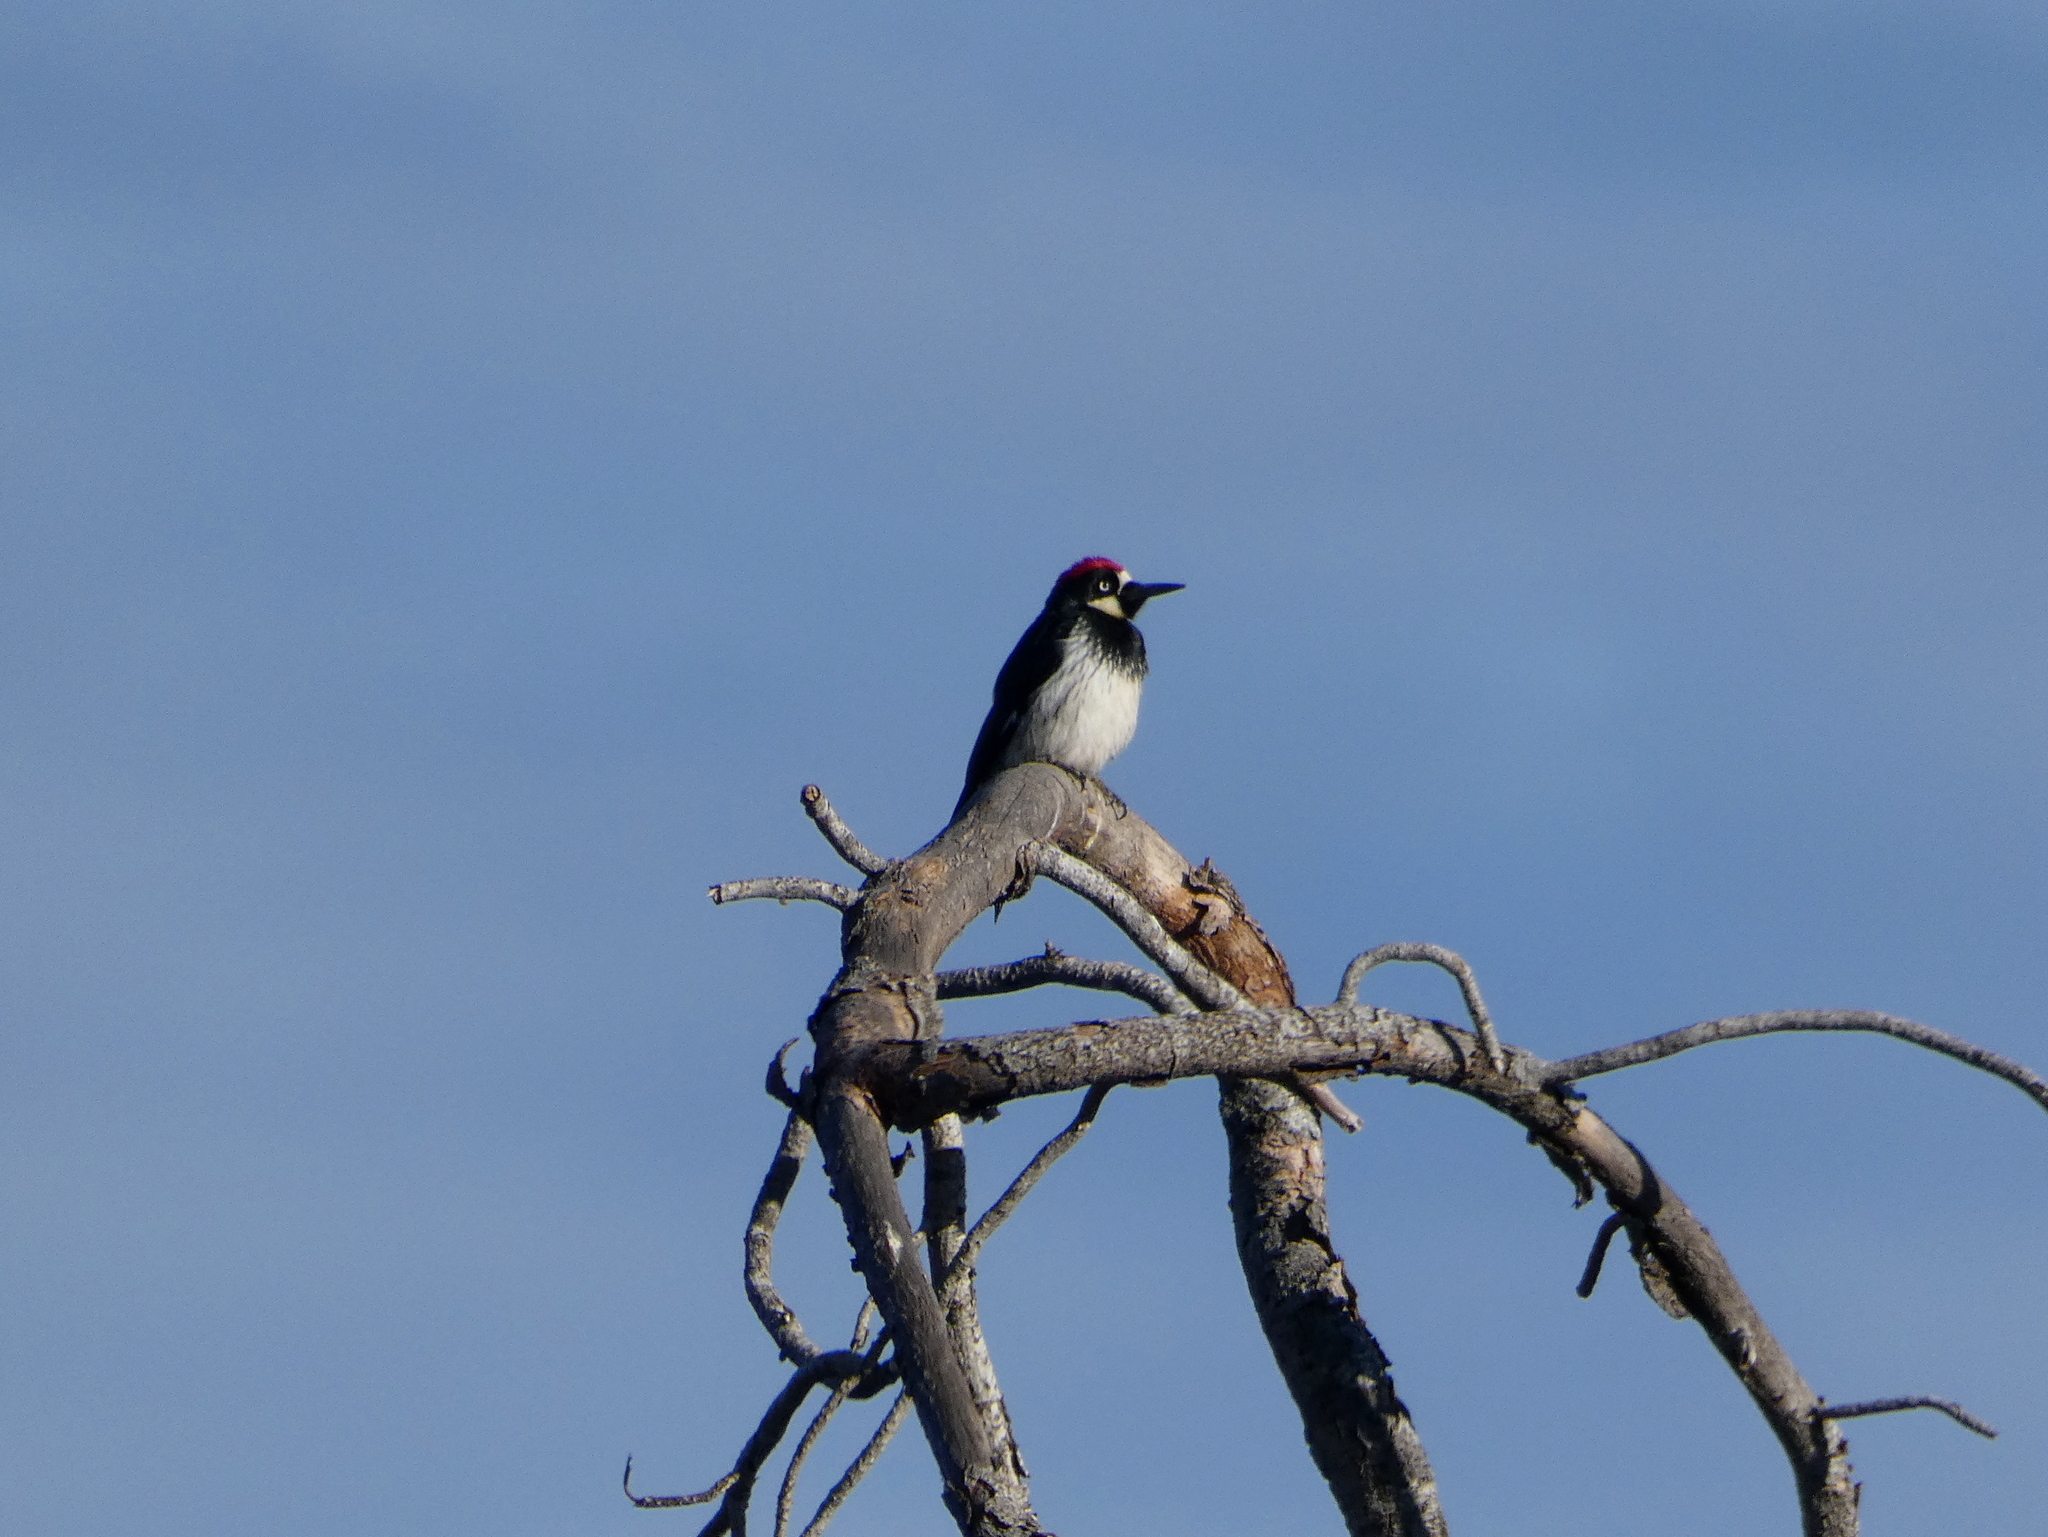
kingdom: Animalia
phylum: Chordata
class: Aves
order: Piciformes
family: Picidae
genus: Melanerpes
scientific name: Melanerpes formicivorus
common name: Acorn woodpecker
